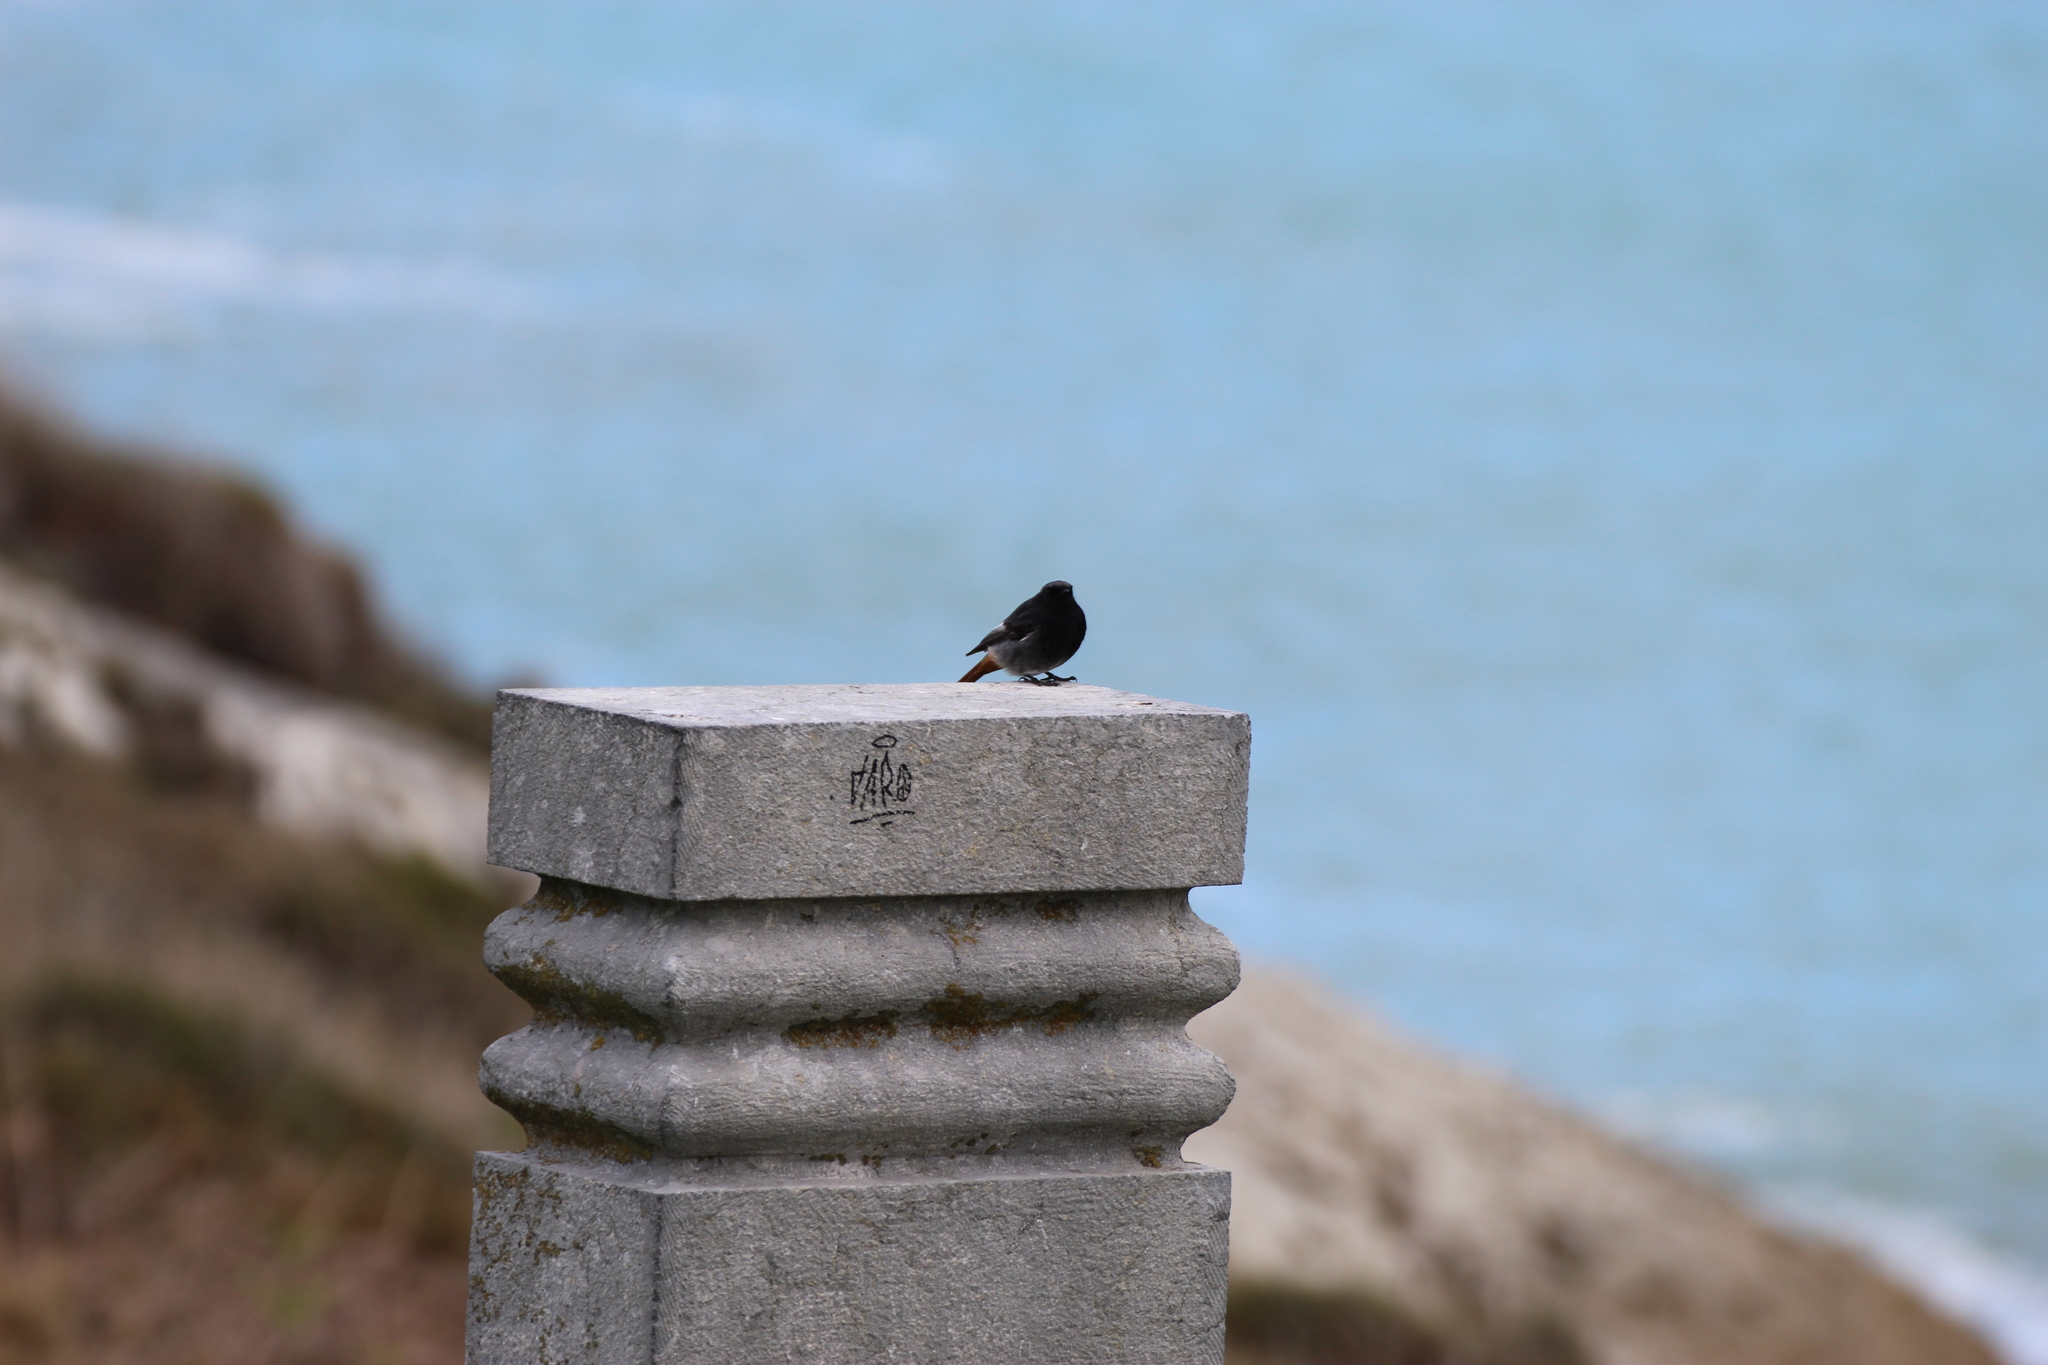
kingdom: Animalia
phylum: Chordata
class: Aves
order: Passeriformes
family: Muscicapidae
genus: Phoenicurus
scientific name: Phoenicurus ochruros
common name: Black redstart
